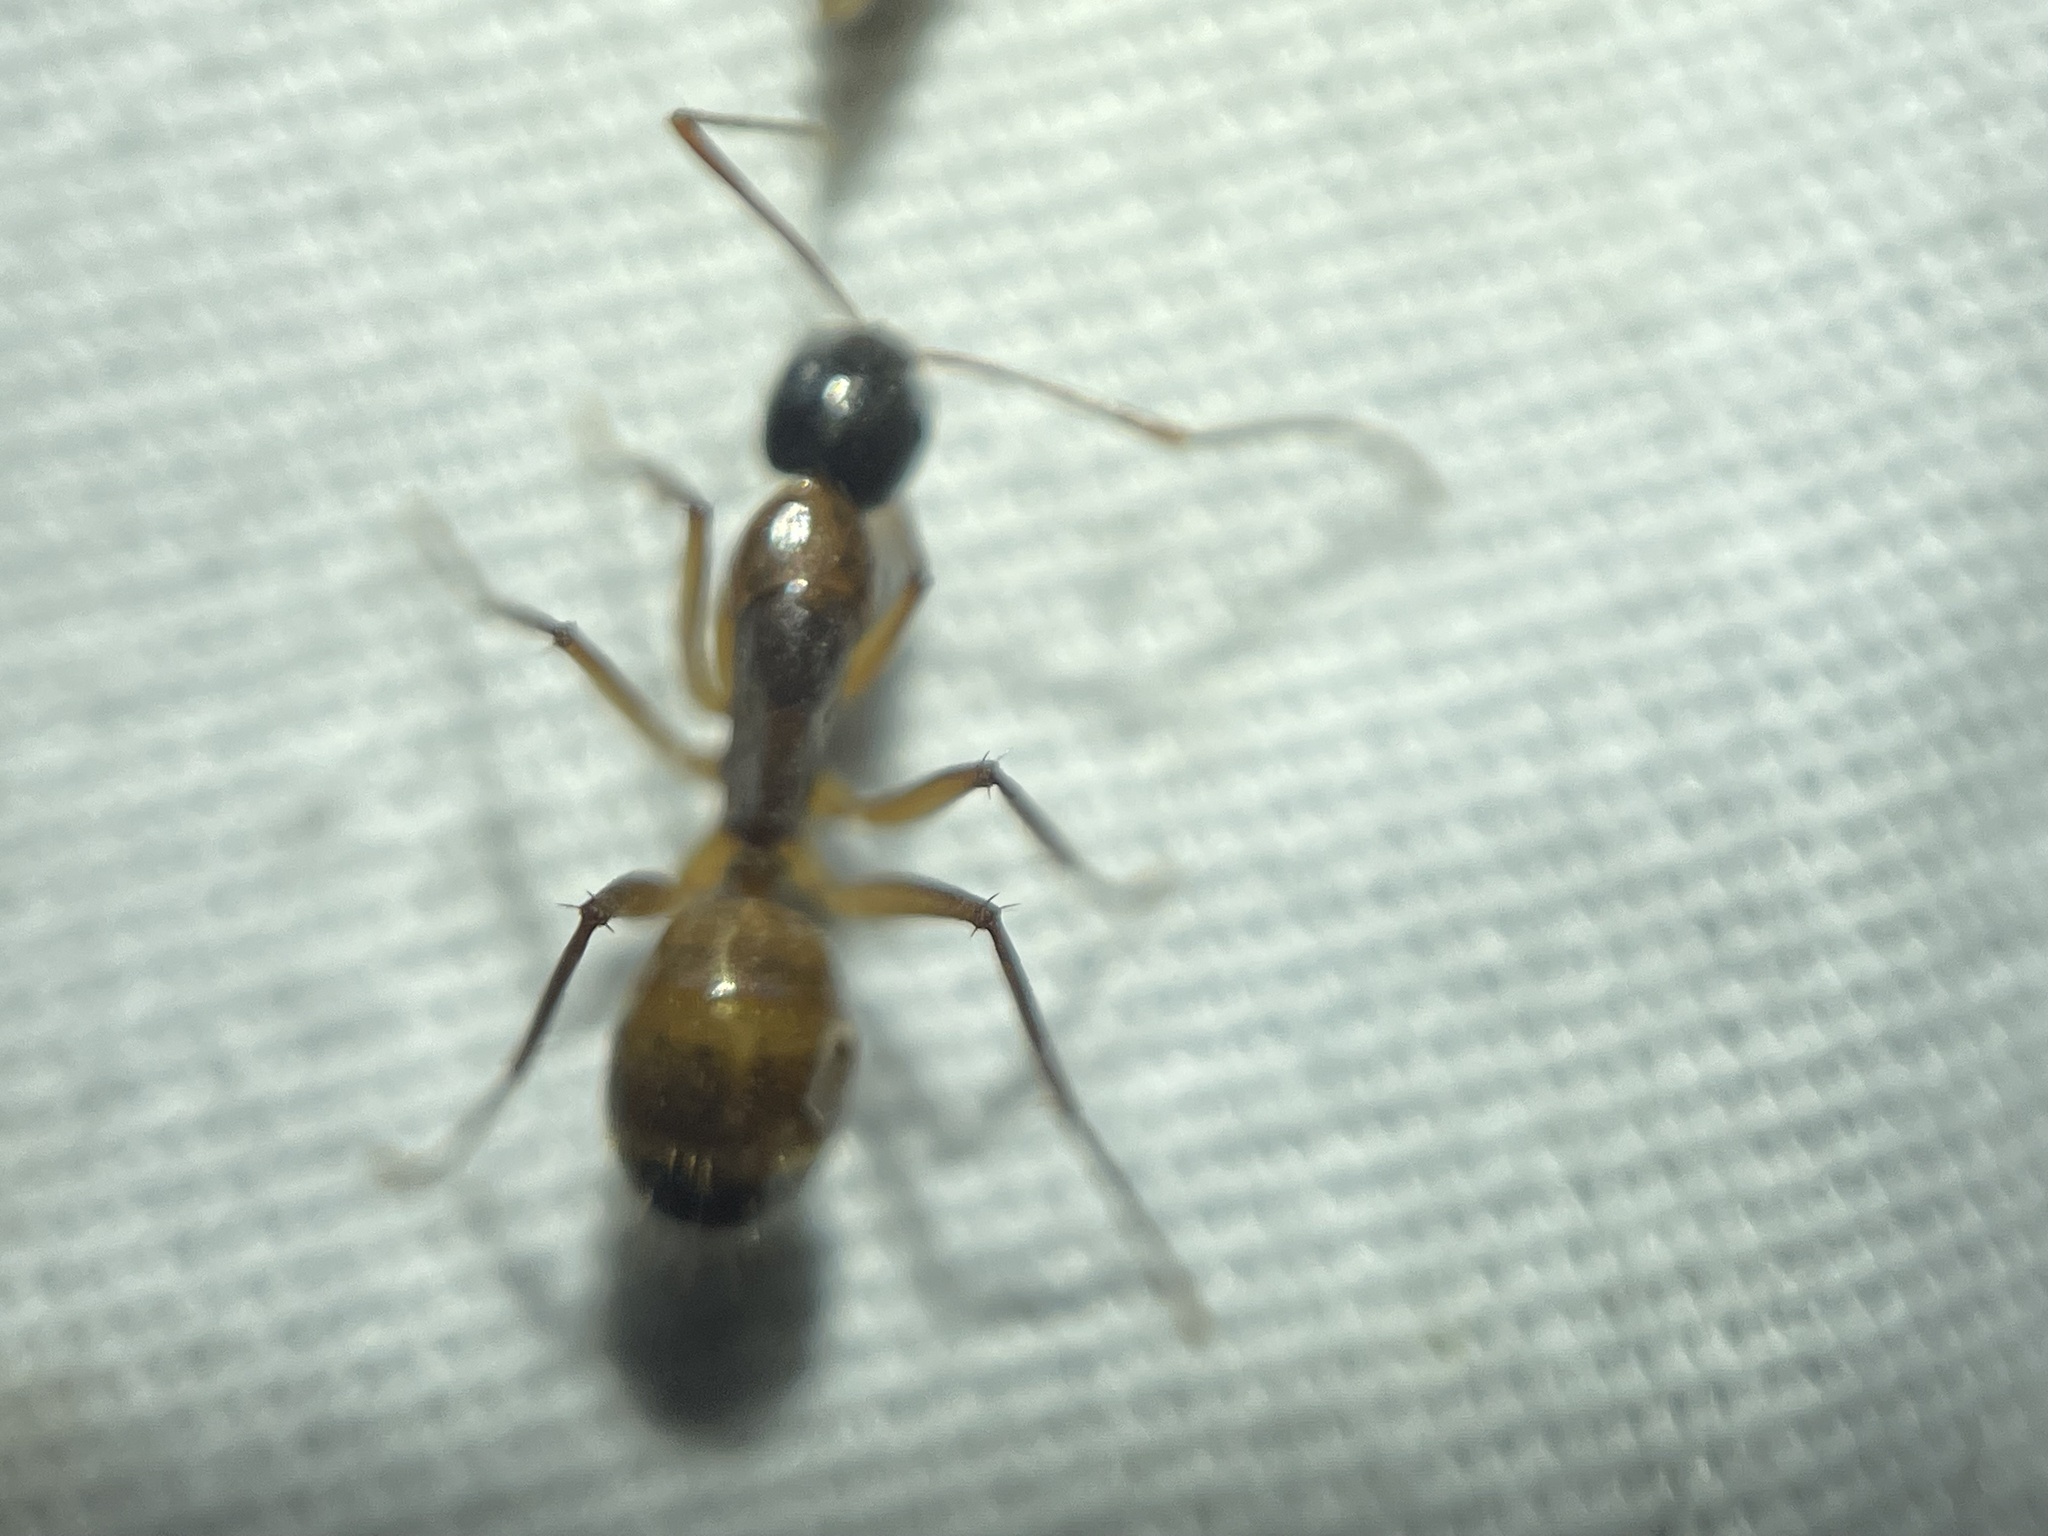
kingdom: Animalia
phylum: Arthropoda
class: Insecta
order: Hymenoptera
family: Formicidae
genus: Camponotus
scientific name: Camponotus americanus
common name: American carpenter ant
